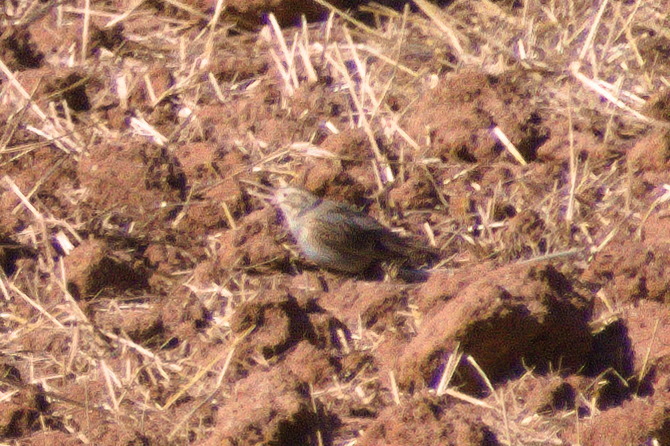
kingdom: Animalia
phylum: Chordata
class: Aves
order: Passeriformes
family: Calcariidae
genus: Rhynchophanes
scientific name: Rhynchophanes mccownii
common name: Mccown's longspur
